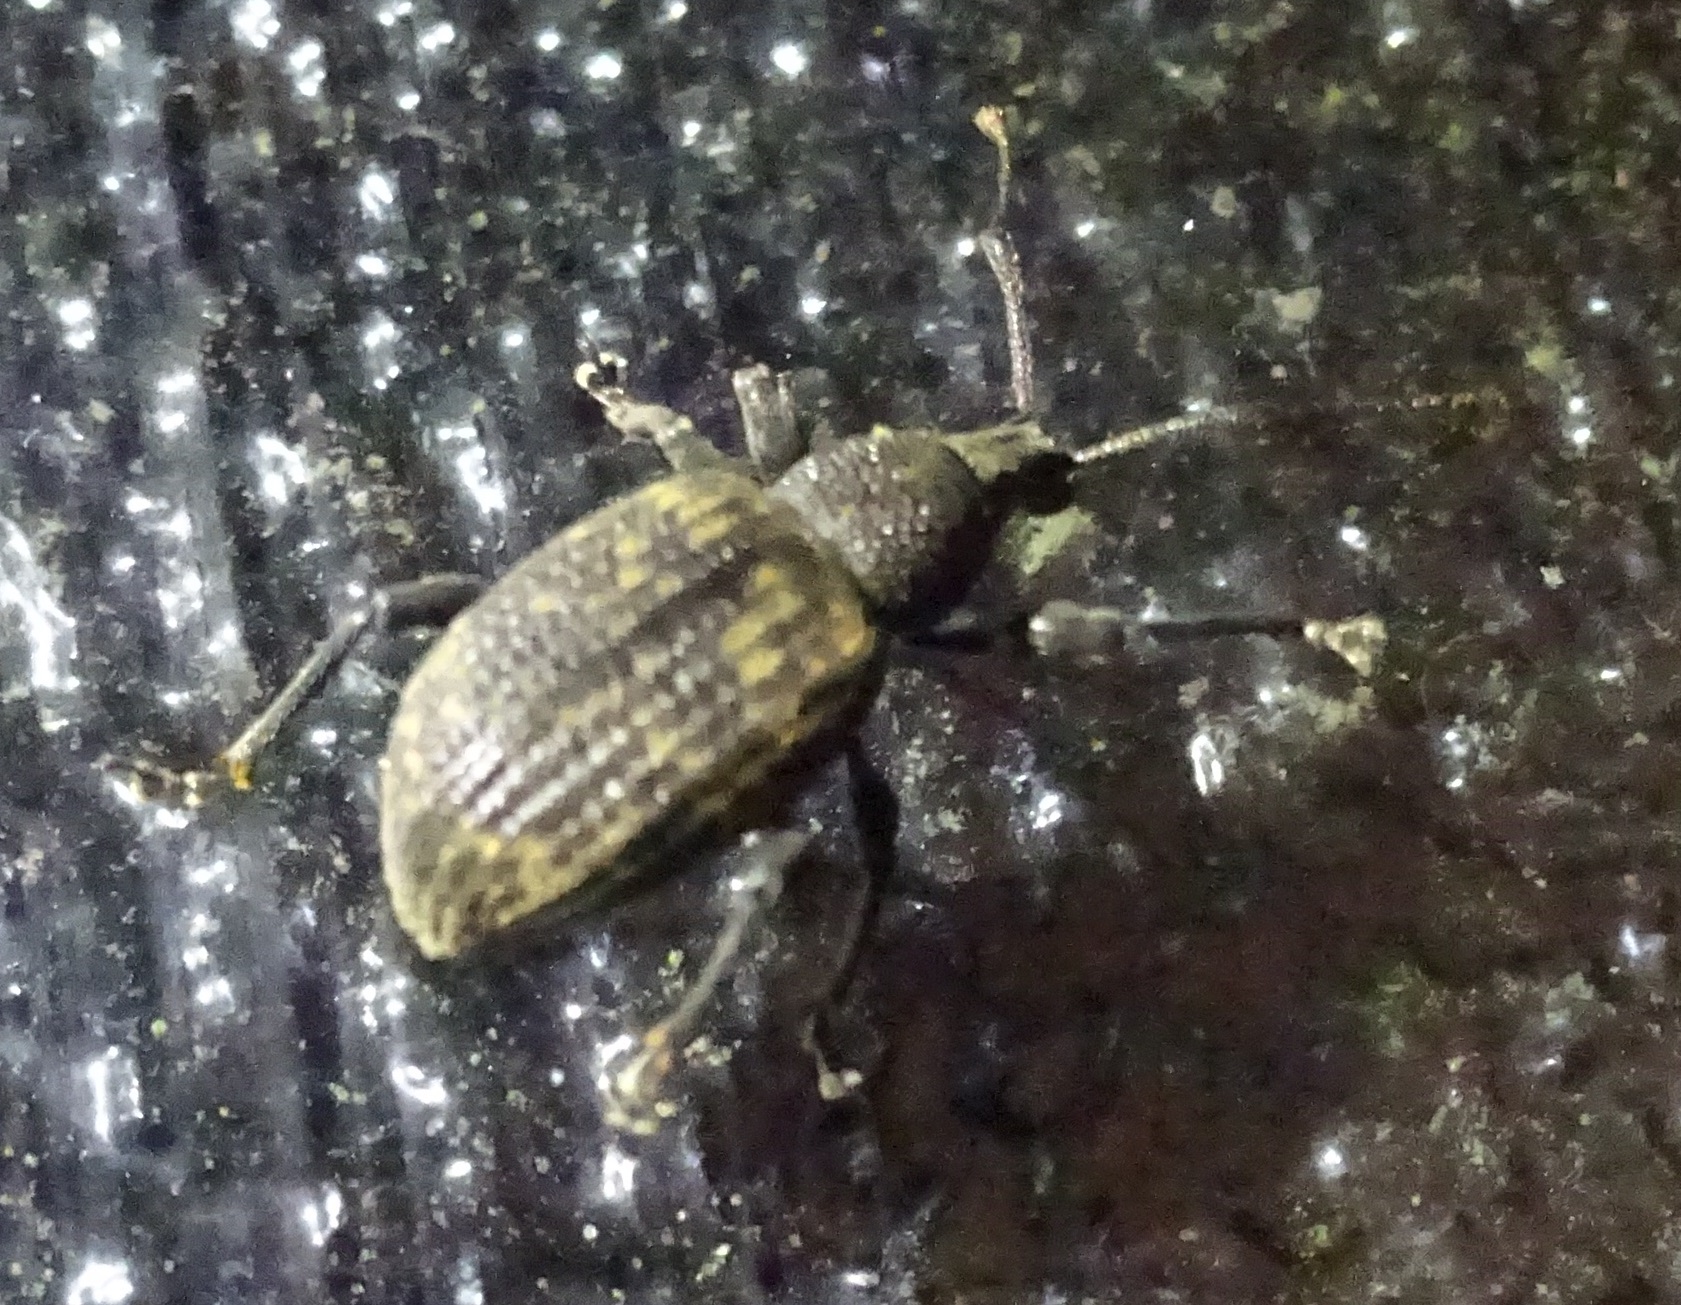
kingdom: Animalia
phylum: Arthropoda
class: Insecta
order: Coleoptera
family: Curculionidae
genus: Otiorhynchus
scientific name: Otiorhynchus sulcatus
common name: Black vine weevil
